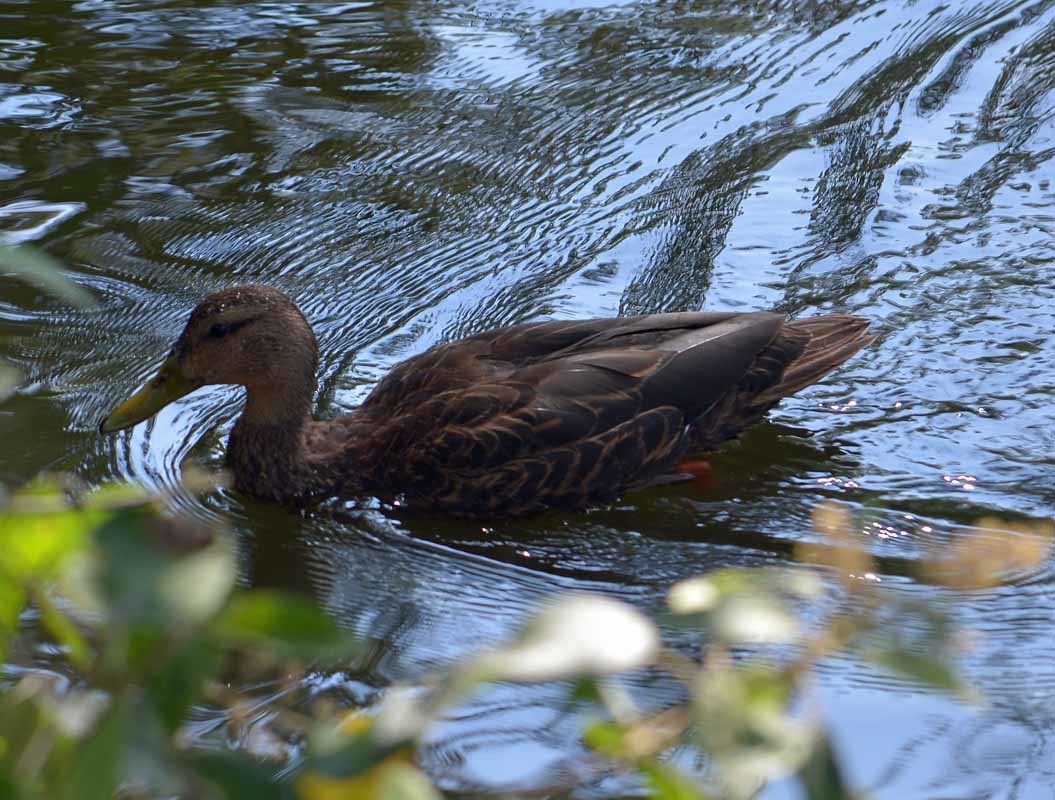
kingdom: Animalia
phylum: Chordata
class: Aves
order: Anseriformes
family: Anatidae
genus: Anas
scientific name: Anas diazi
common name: Mexican duck
